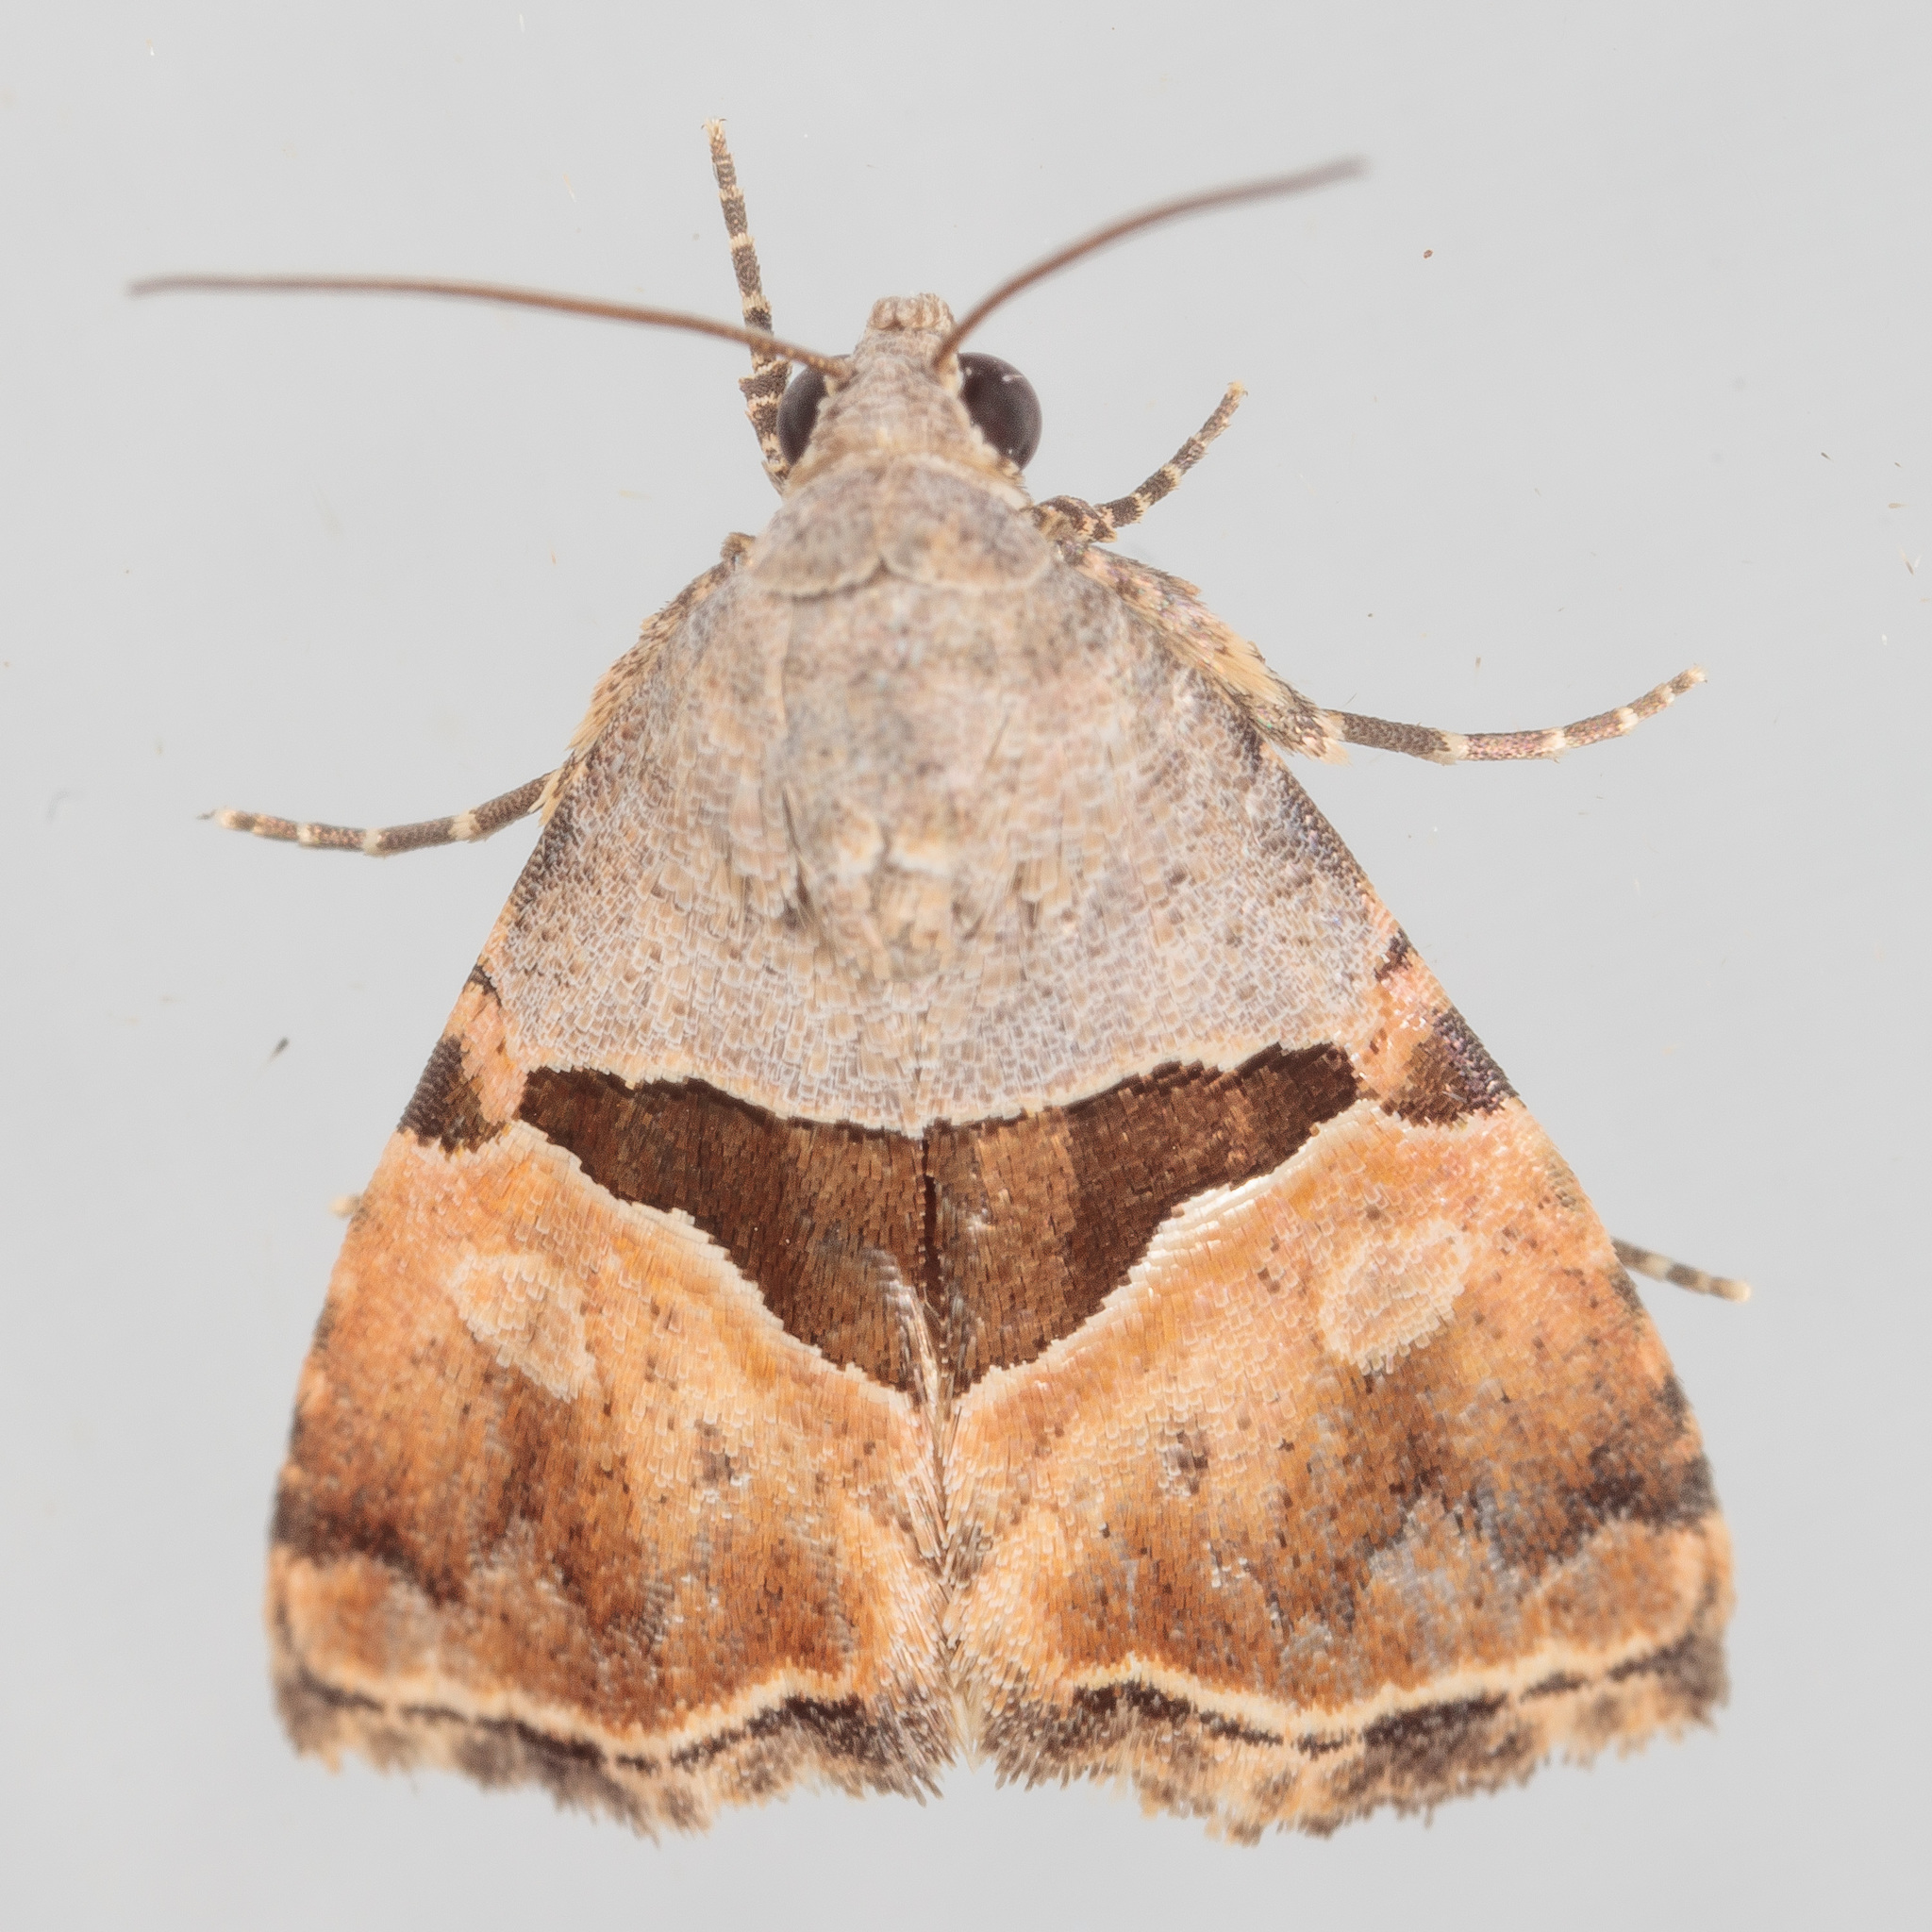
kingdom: Animalia
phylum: Arthropoda
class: Insecta
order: Lepidoptera
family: Noctuidae
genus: Cobubatha
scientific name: Cobubatha lixiva
